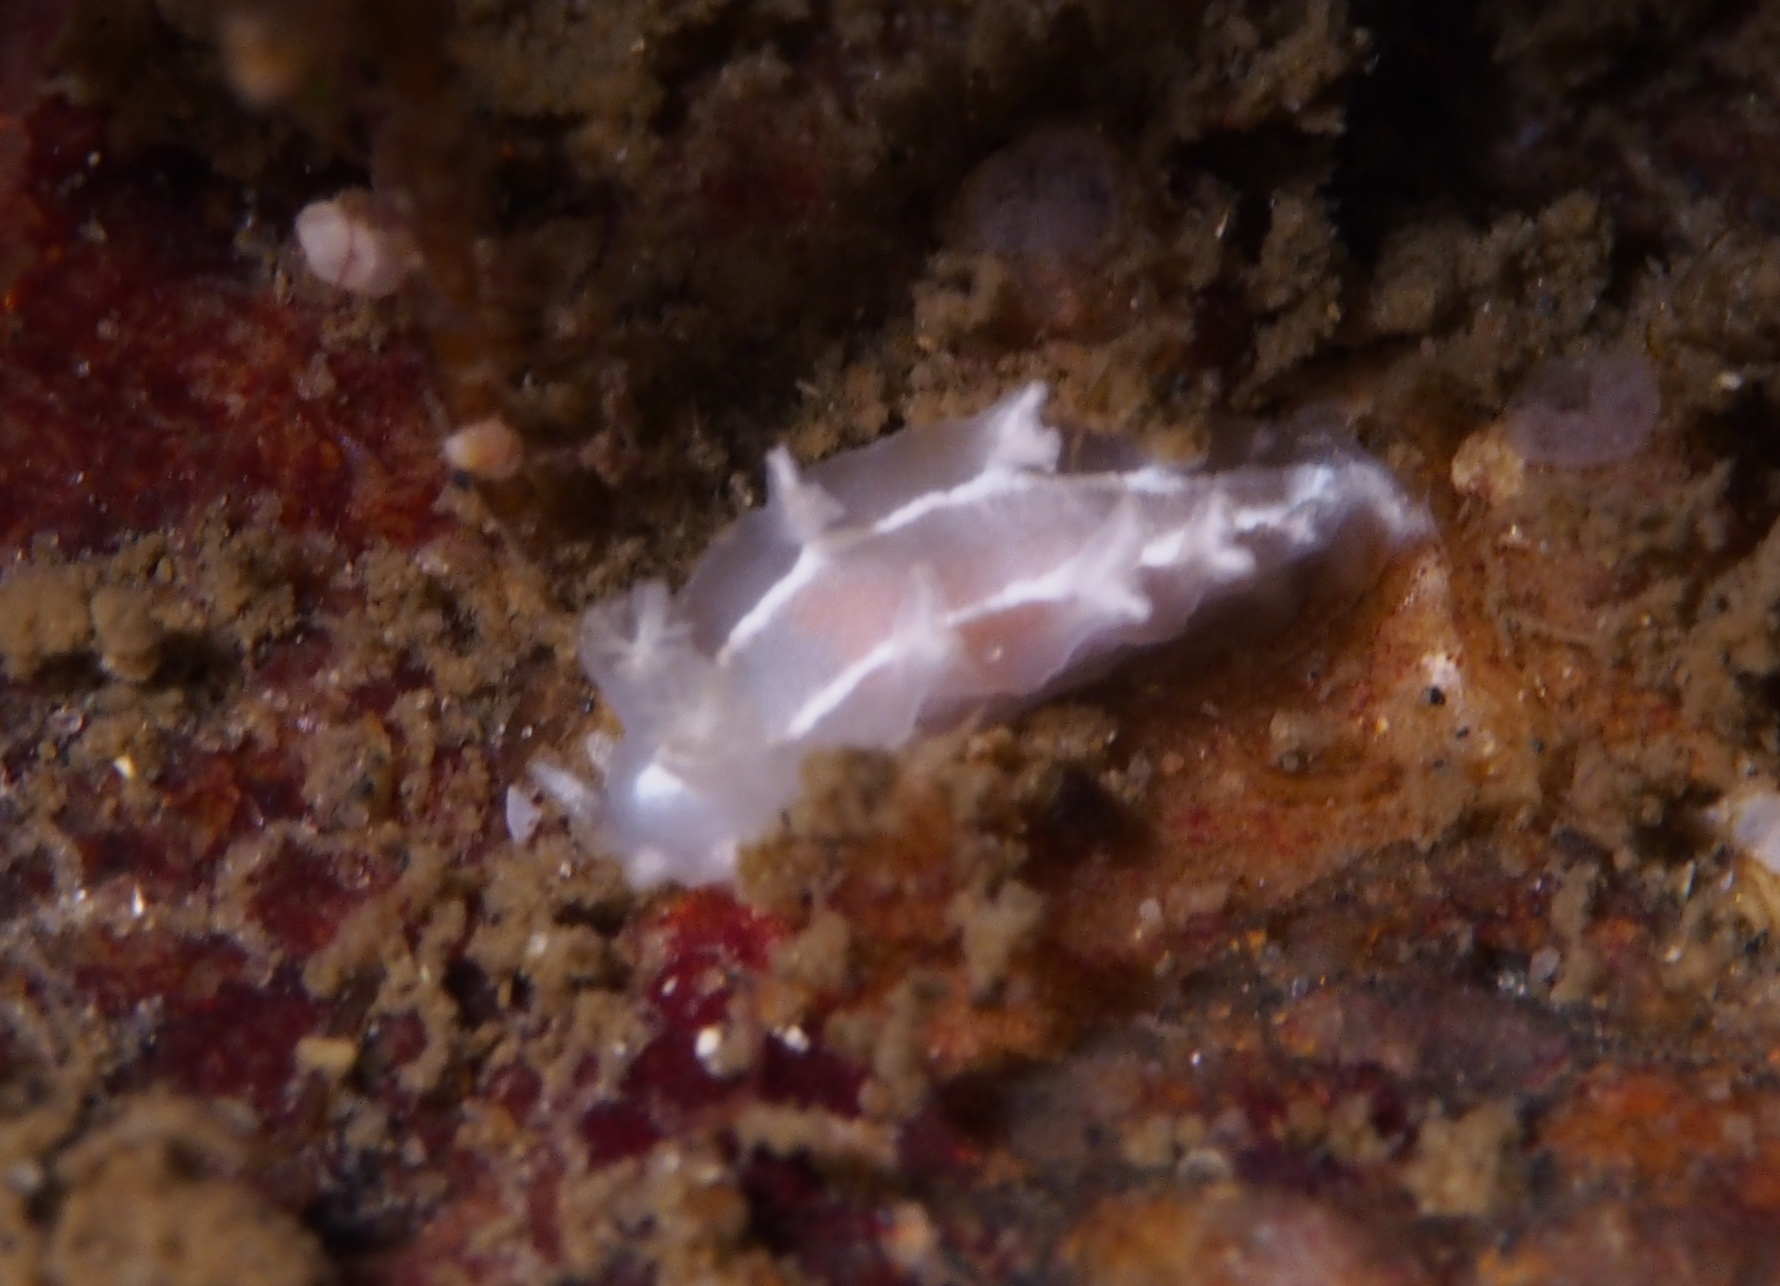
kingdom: Animalia
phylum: Mollusca
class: Gastropoda
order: Nudibranchia
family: Tritoniidae
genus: Duvaucelia
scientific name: Duvaucelia lineata
